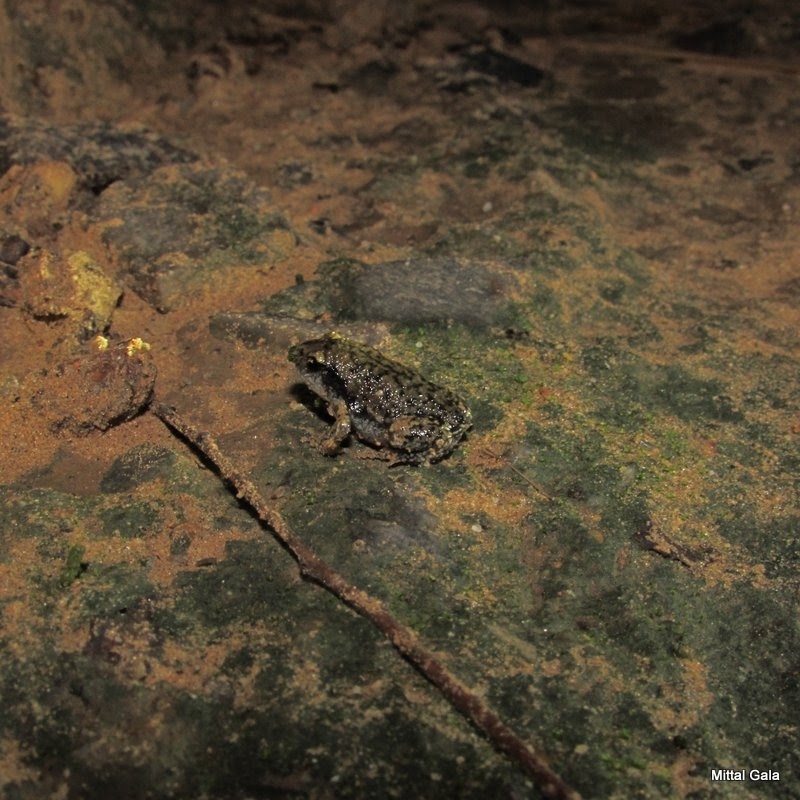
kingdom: Animalia
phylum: Chordata
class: Amphibia
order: Anura
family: Microhylidae
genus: Uperodon
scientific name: Uperodon systoma
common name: Balloon frog
